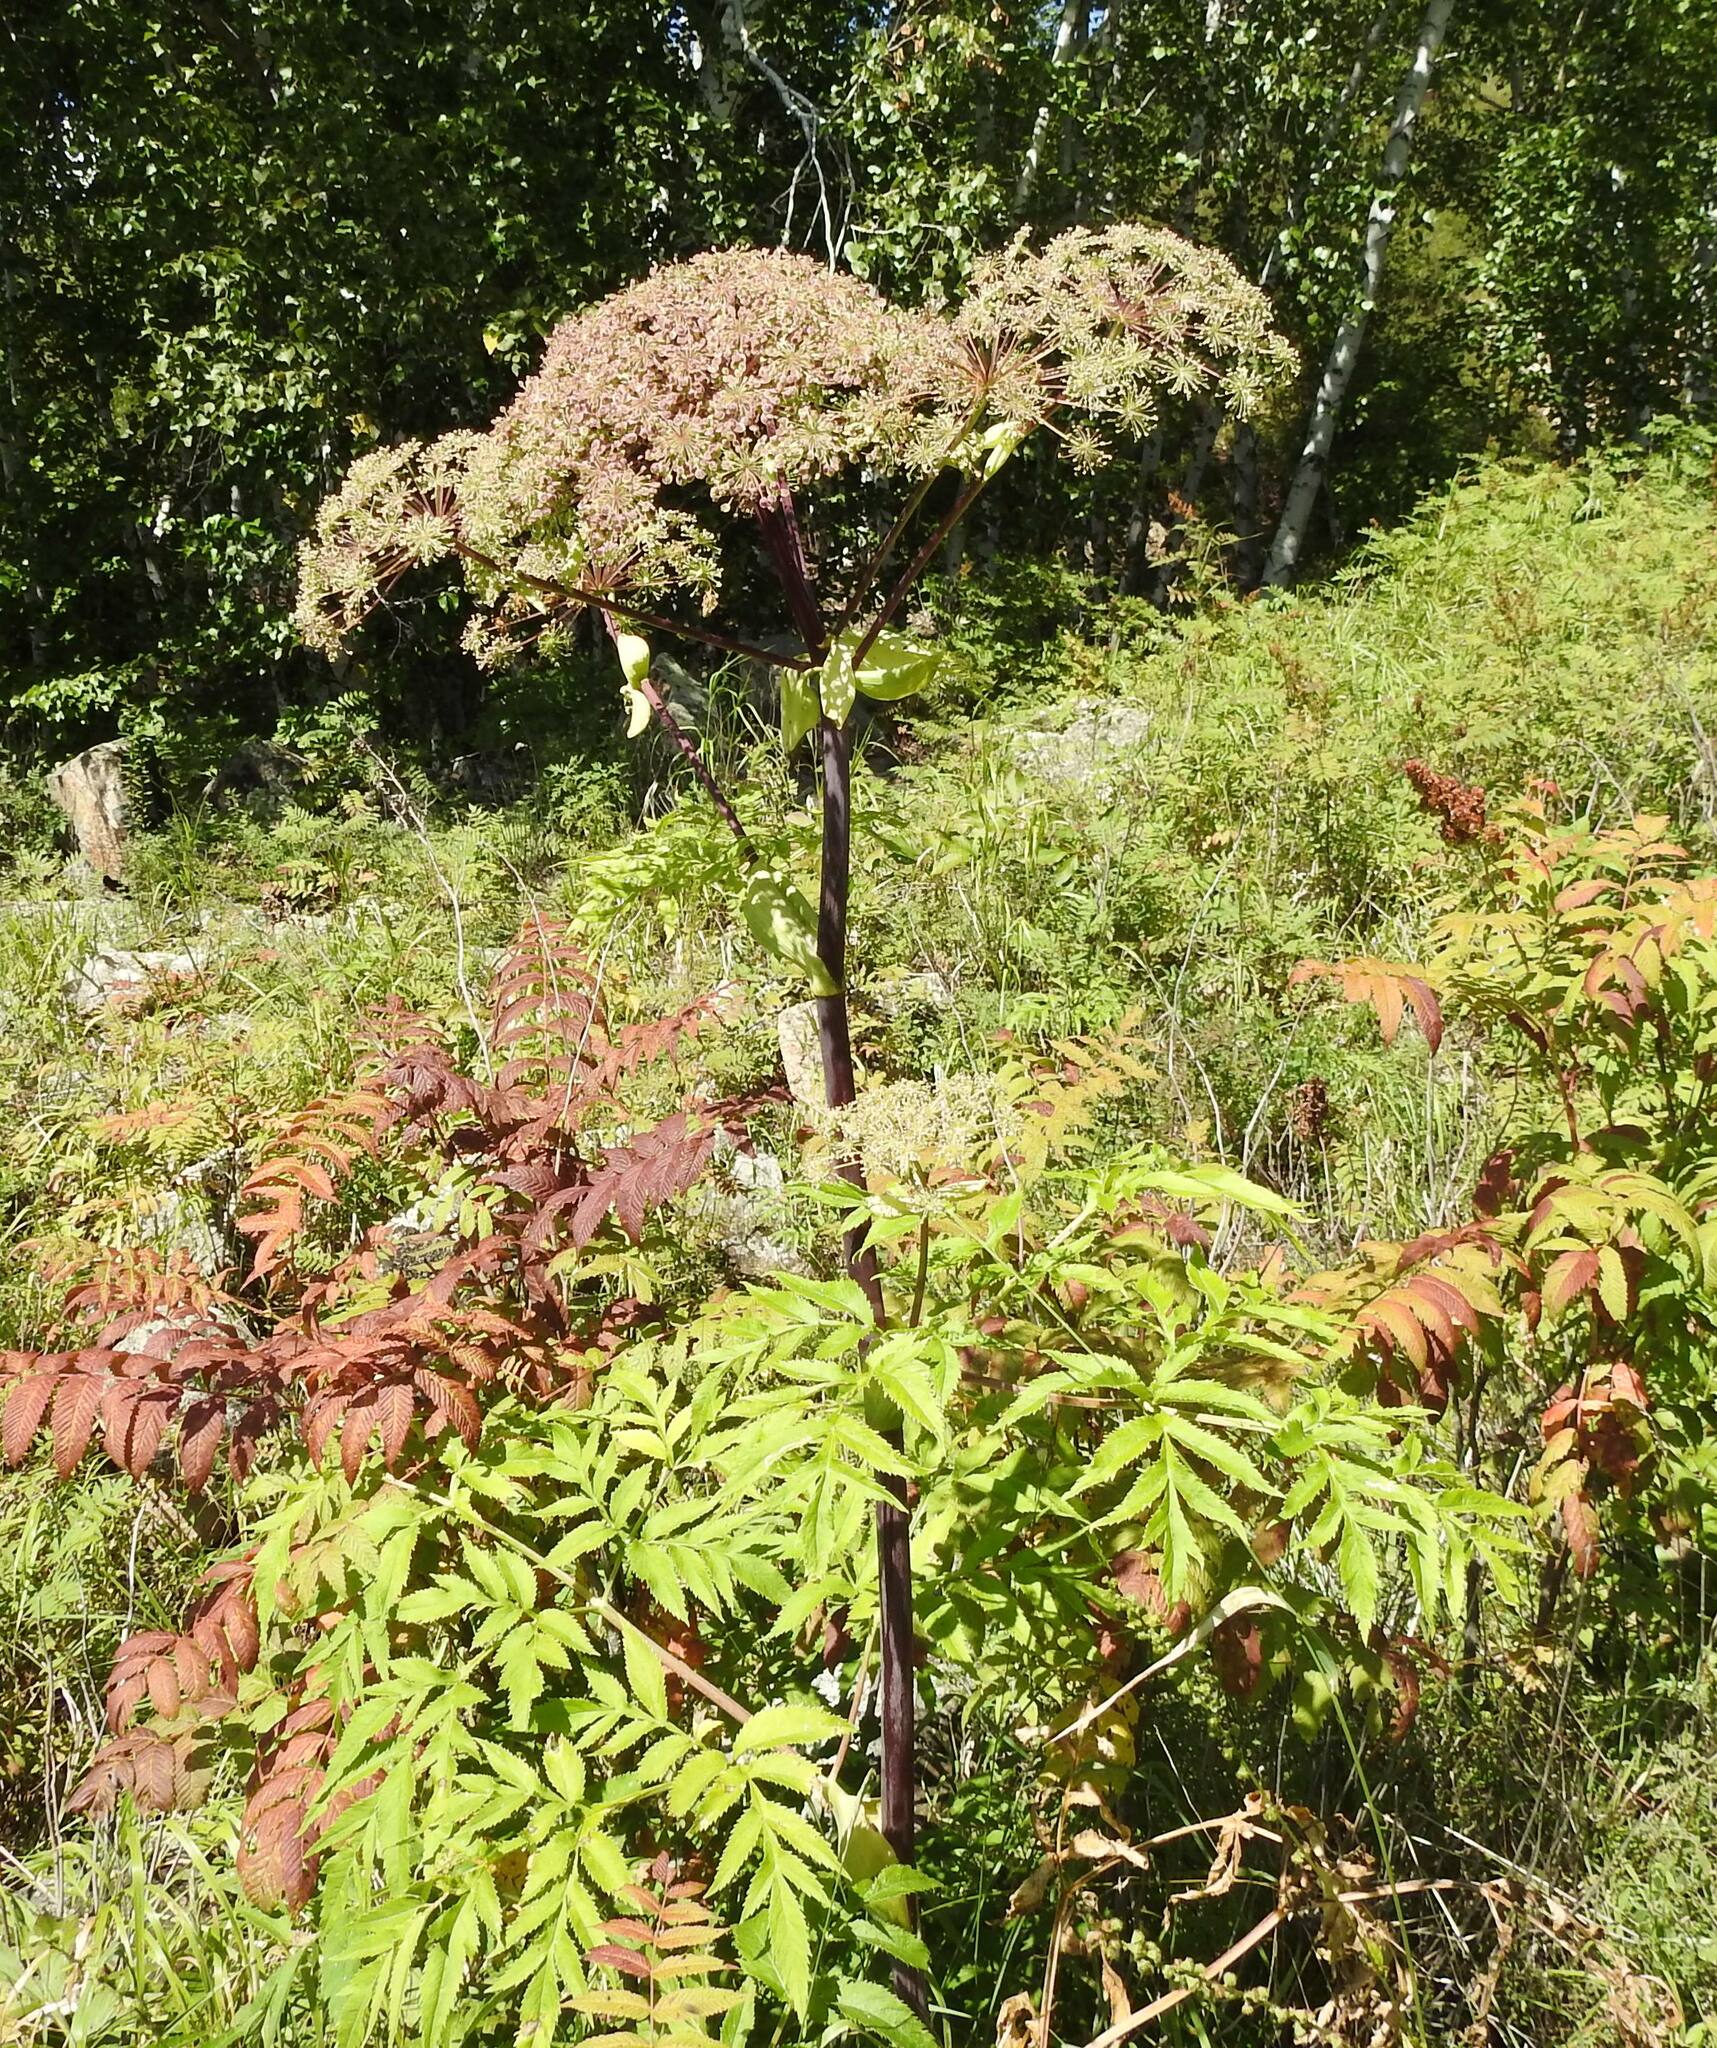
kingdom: Plantae
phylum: Tracheophyta
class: Magnoliopsida
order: Apiales
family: Apiaceae
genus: Angelica
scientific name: Angelica dahurica
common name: Dahurian angelica
